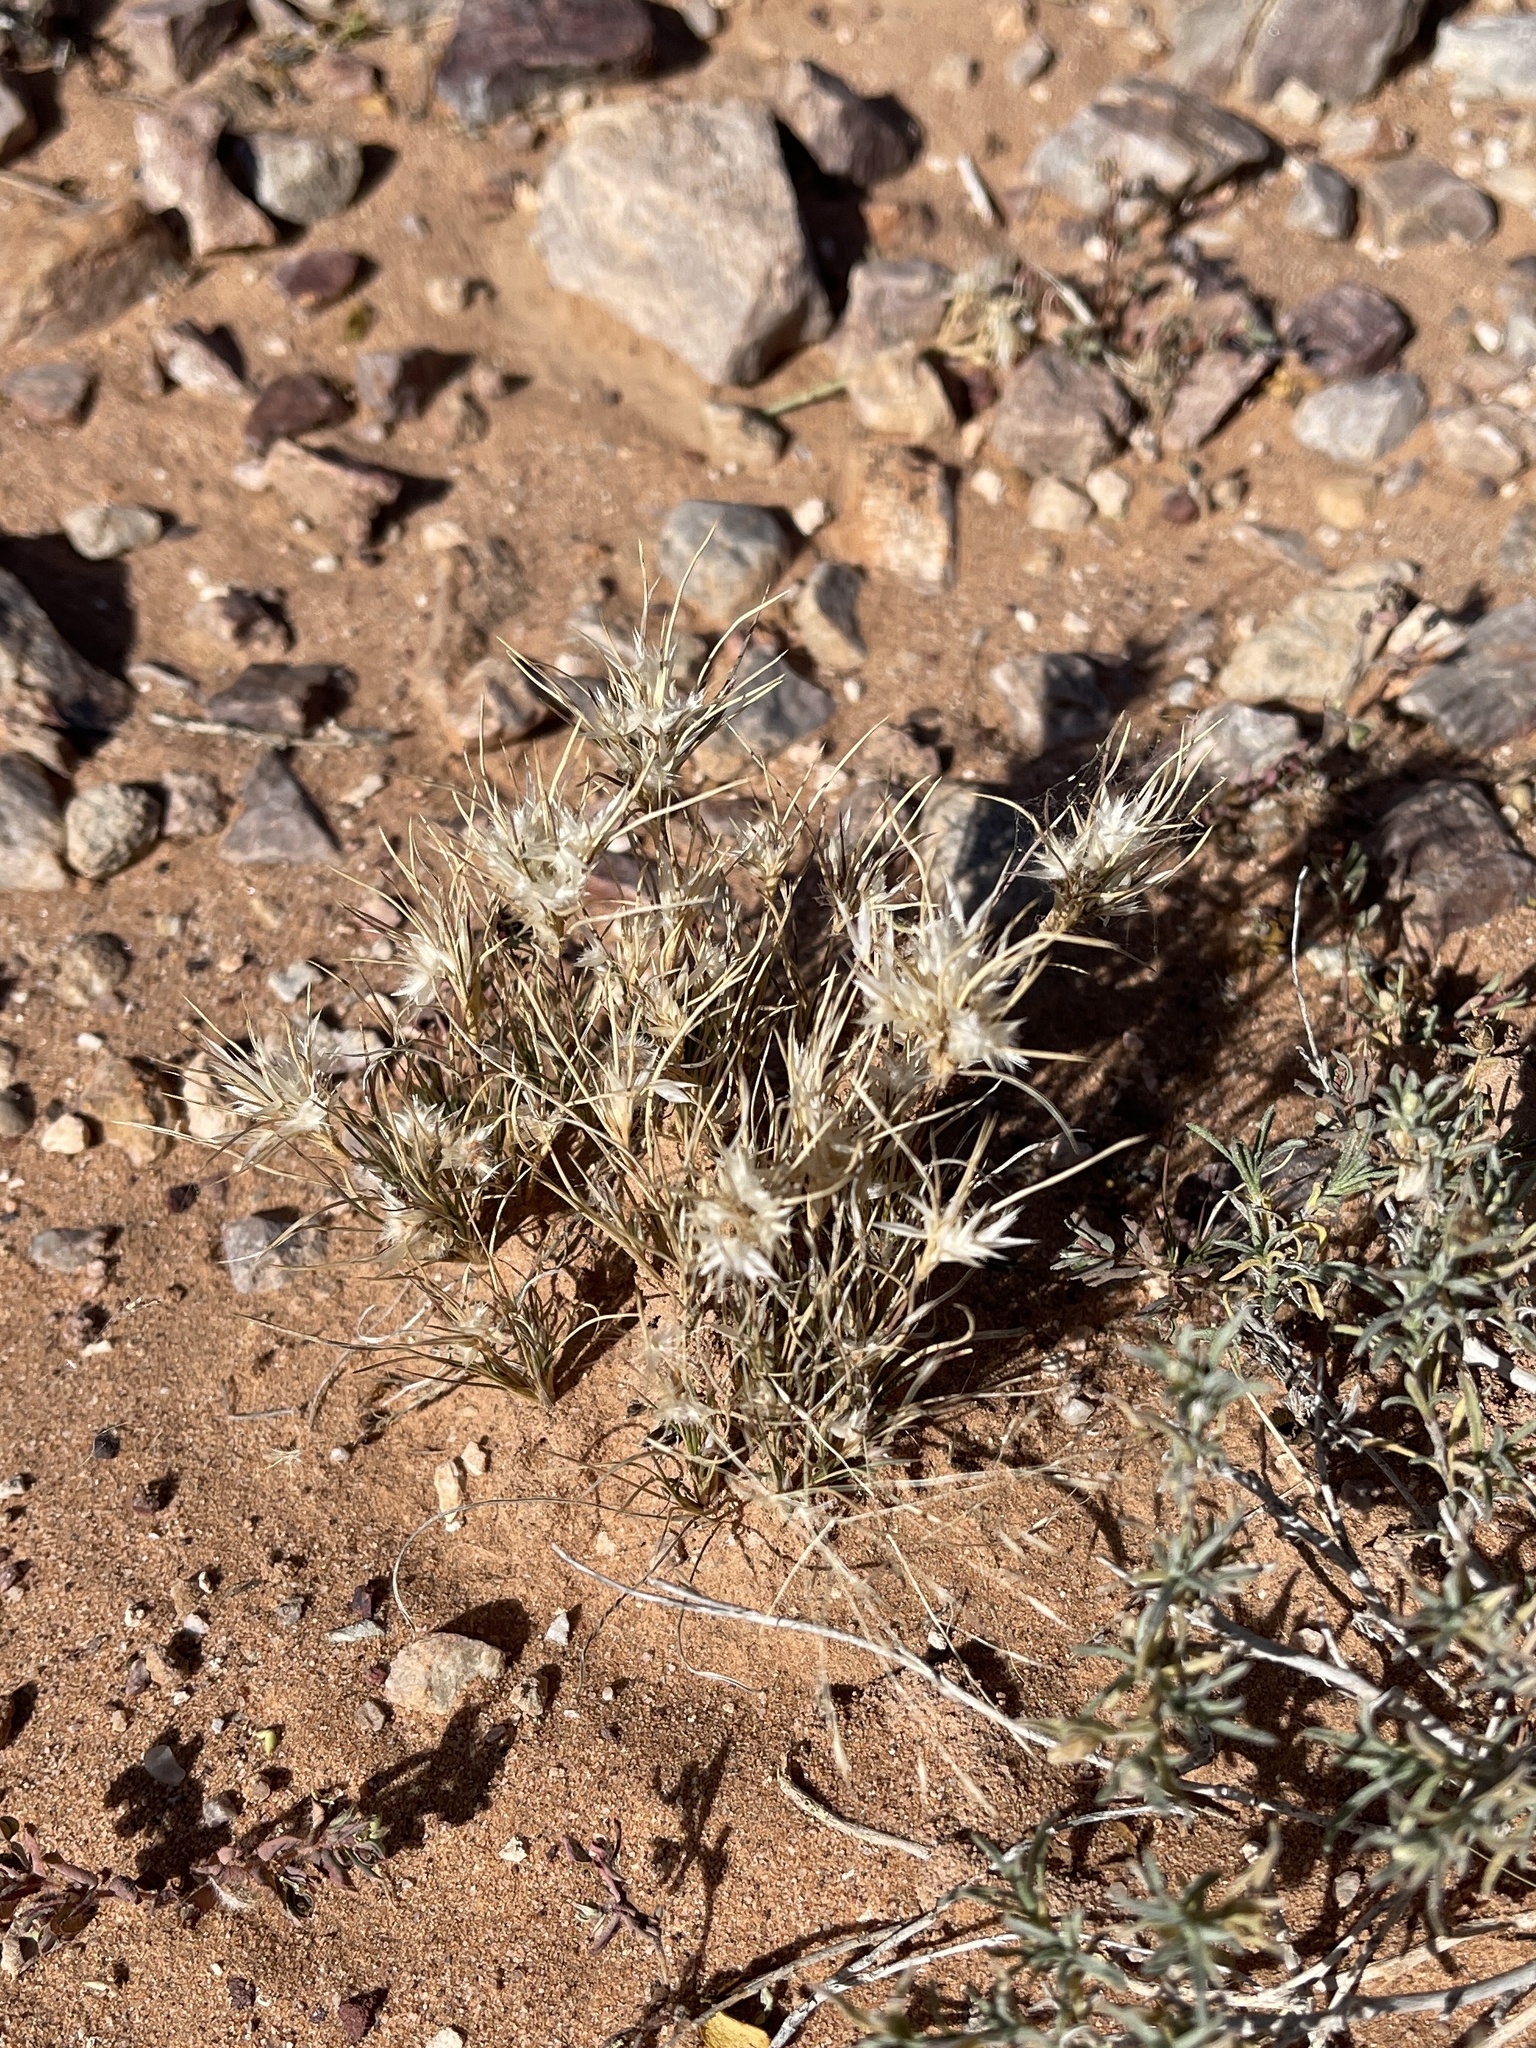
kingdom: Plantae
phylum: Tracheophyta
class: Liliopsida
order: Poales
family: Poaceae
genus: Dasyochloa
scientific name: Dasyochloa pulchella
